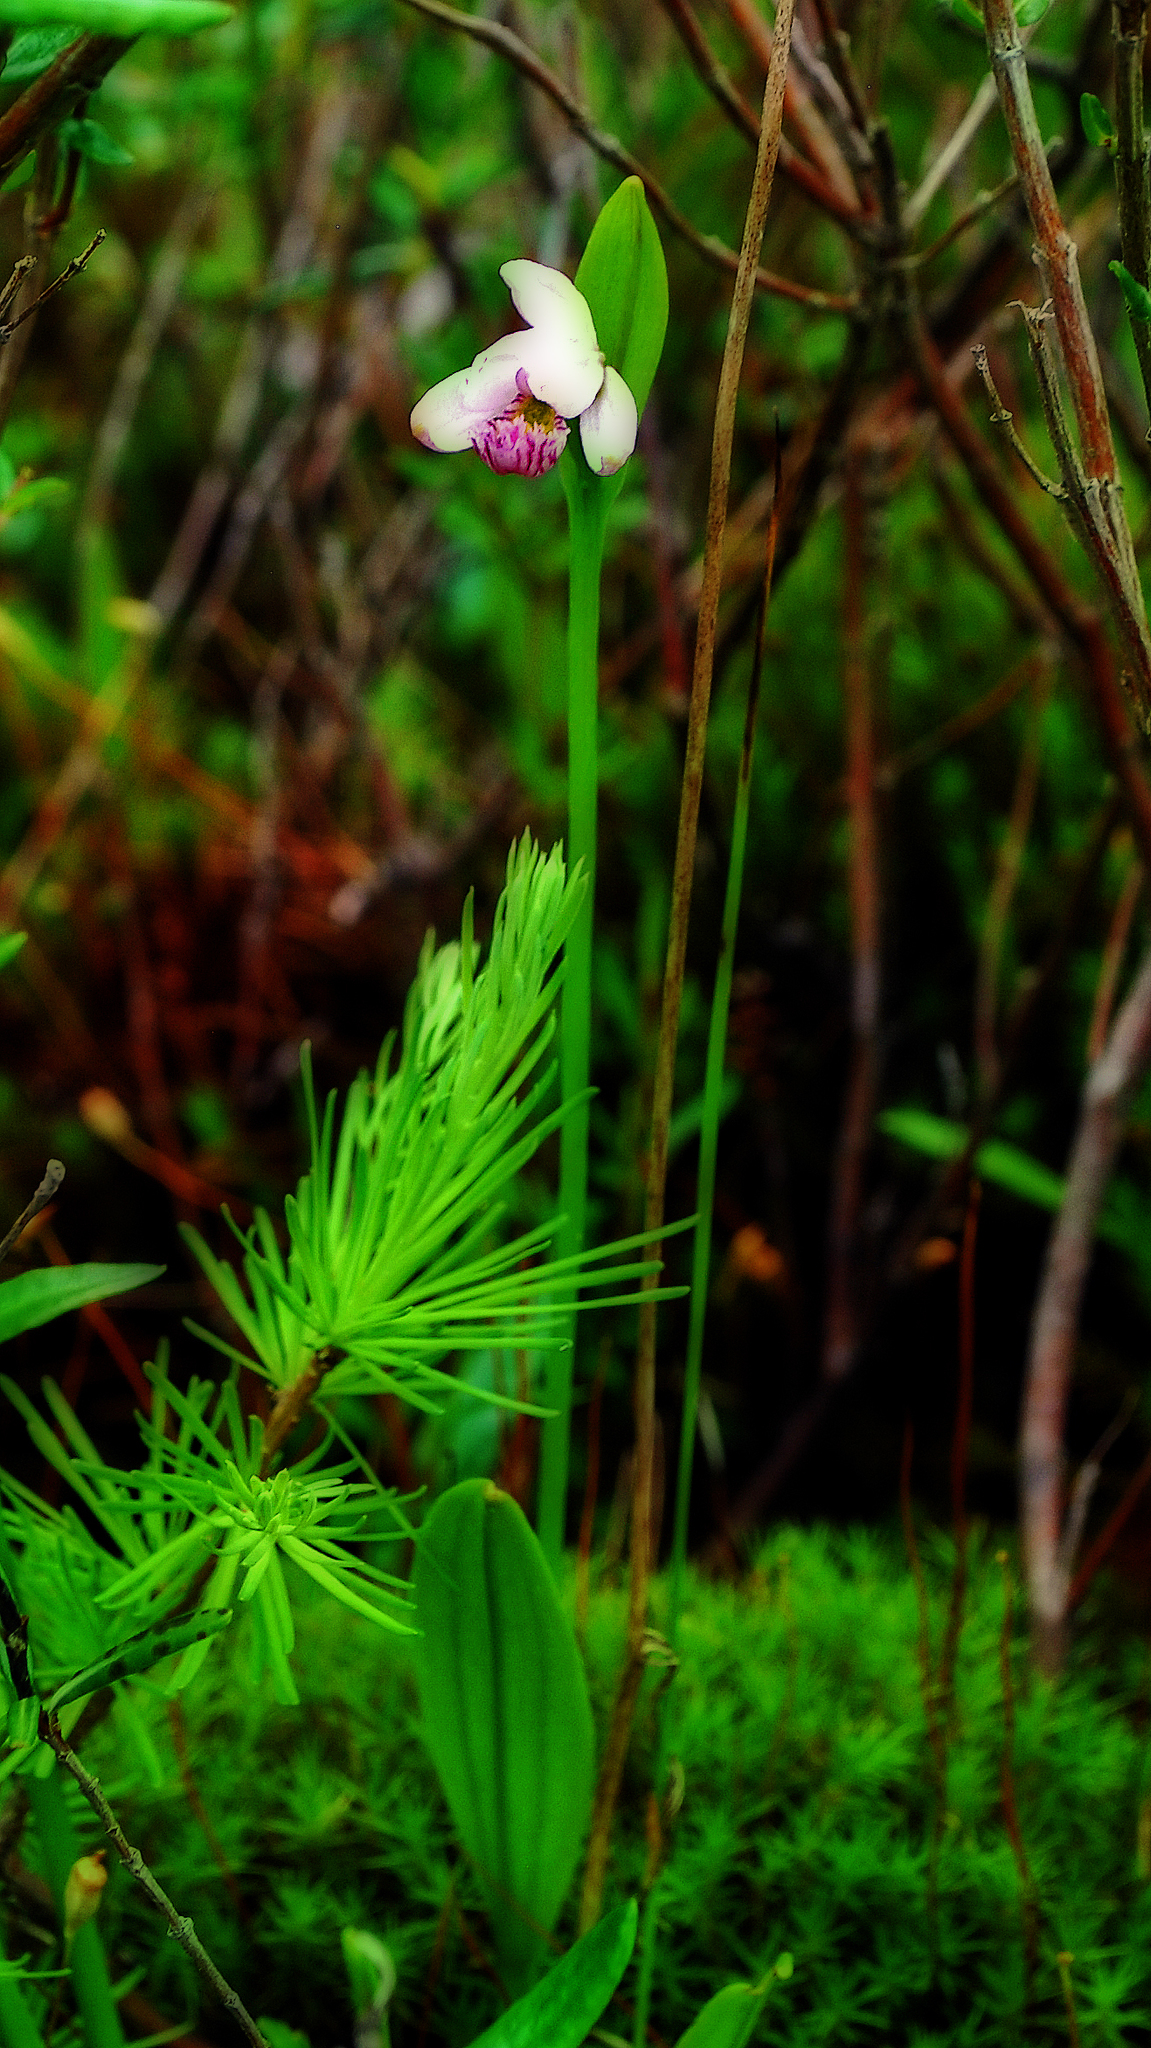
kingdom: Plantae
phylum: Tracheophyta
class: Liliopsida
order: Asparagales
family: Orchidaceae
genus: Pogonia
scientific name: Pogonia ophioglossoides
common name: Rose pogonia
